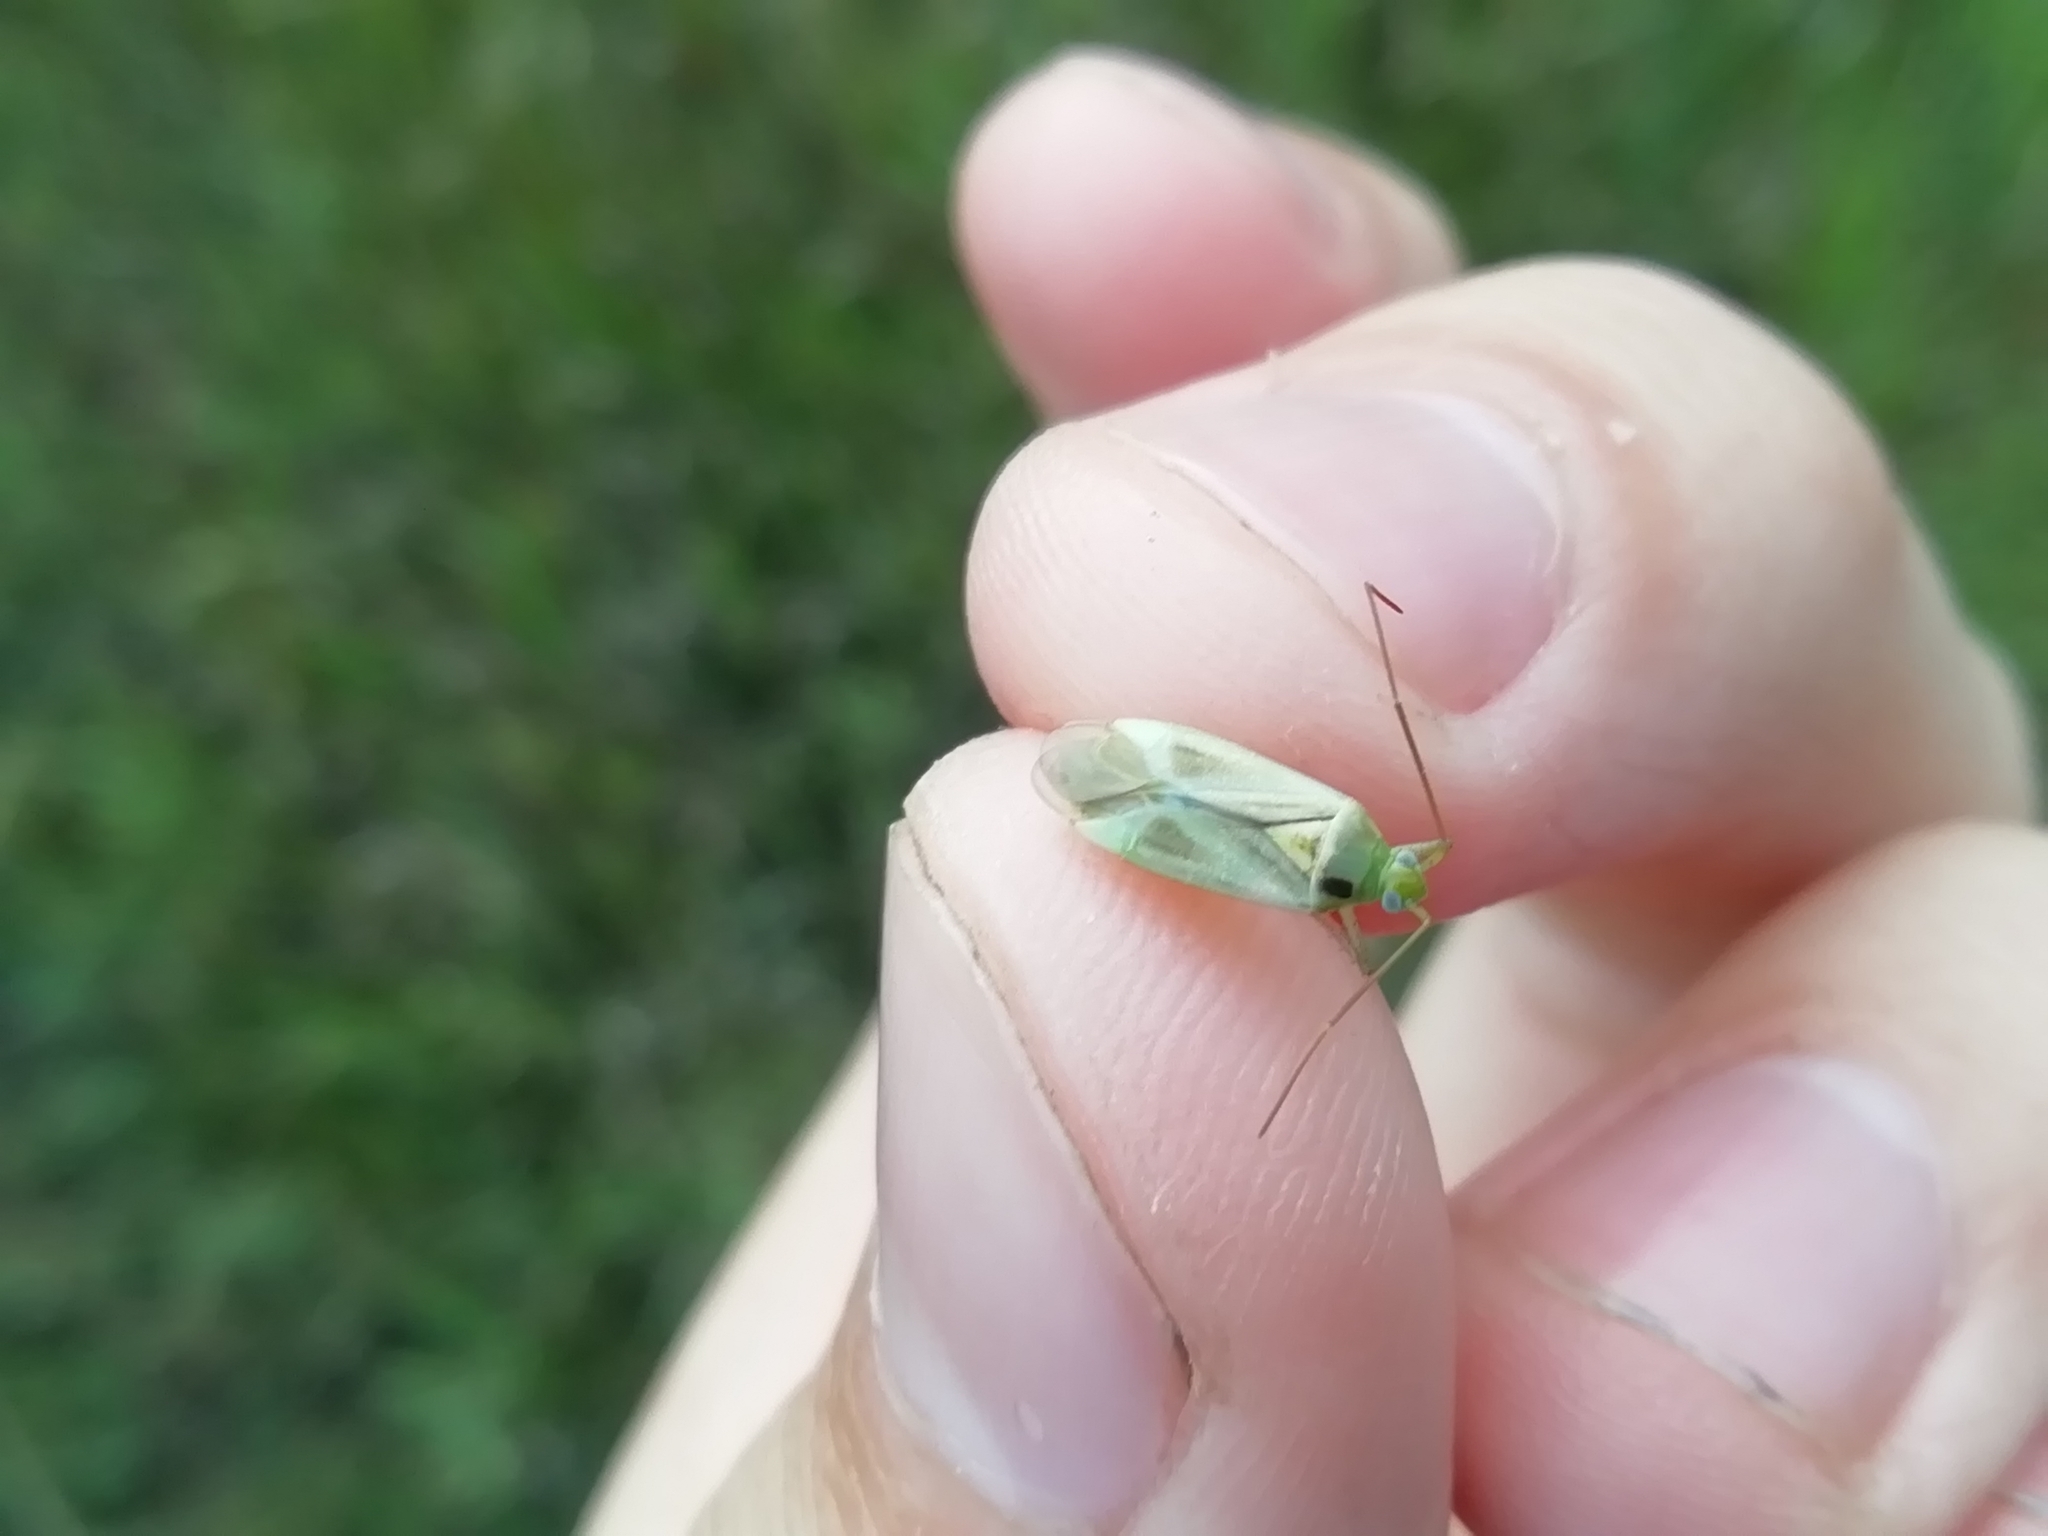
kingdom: Animalia
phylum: Arthropoda
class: Insecta
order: Hemiptera
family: Miridae
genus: Adelphocoris
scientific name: Adelphocoris lineolatus
